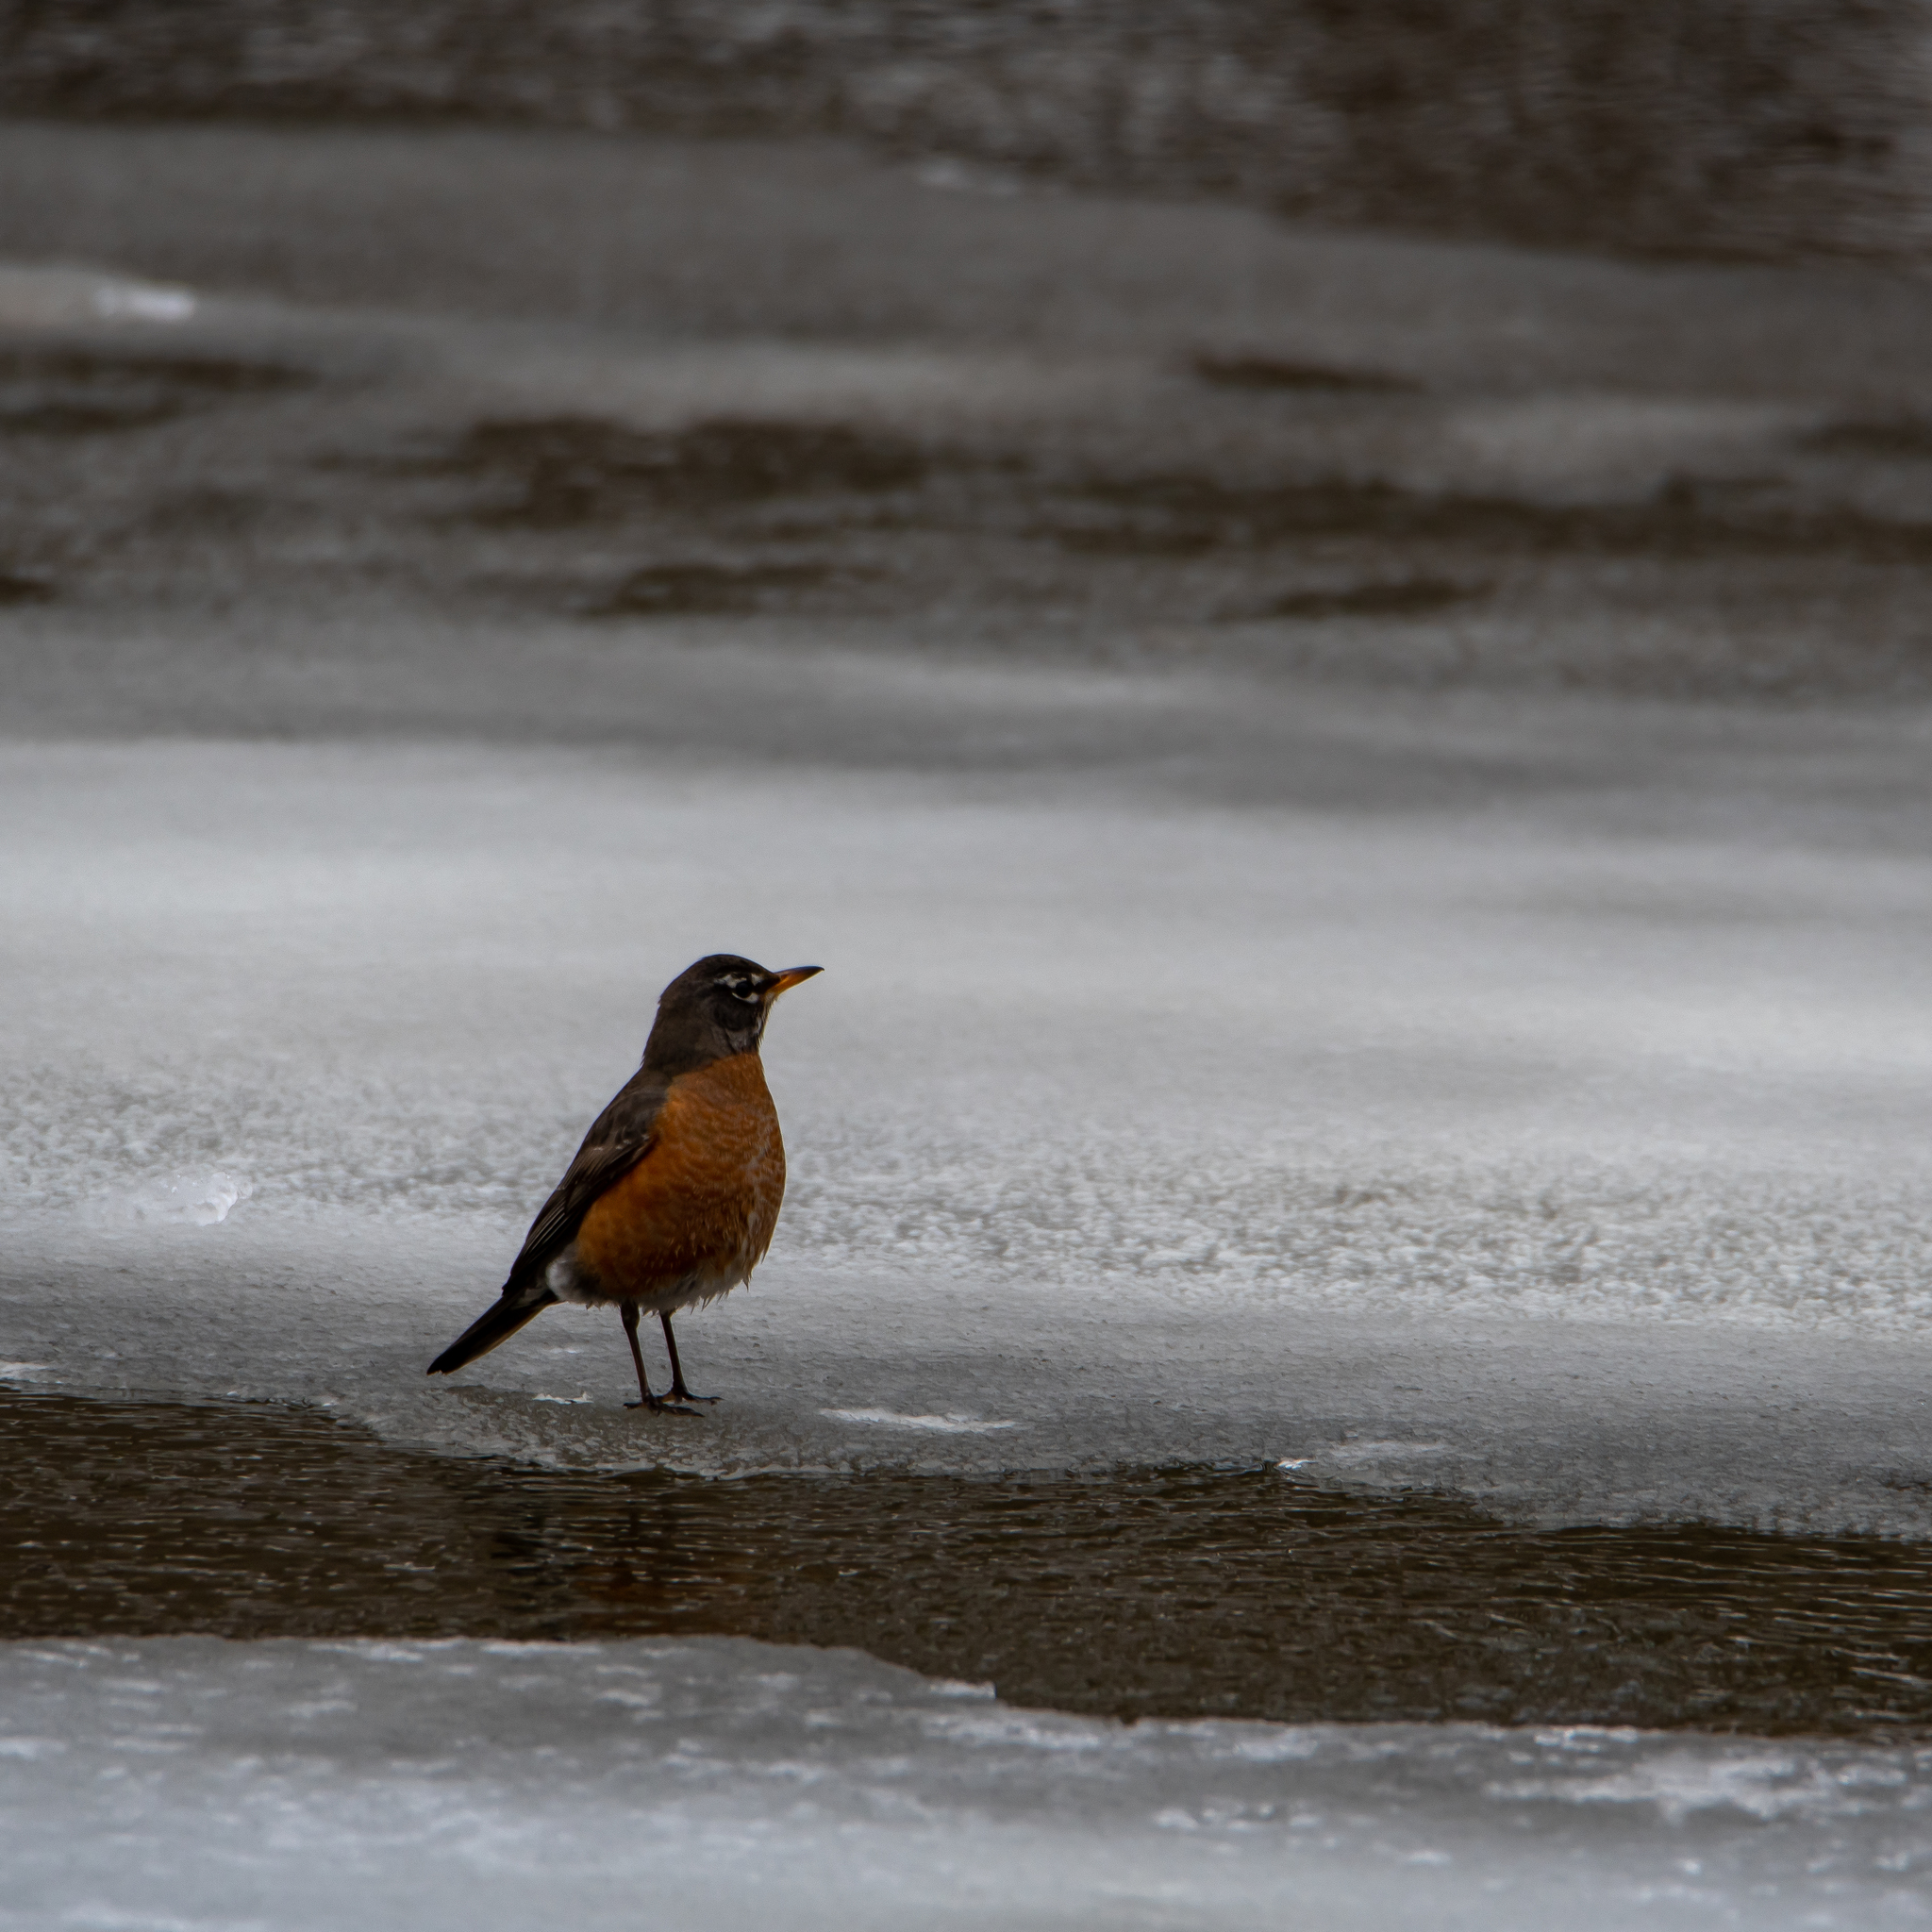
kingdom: Animalia
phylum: Chordata
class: Aves
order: Passeriformes
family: Turdidae
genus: Turdus
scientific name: Turdus migratorius
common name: American robin
